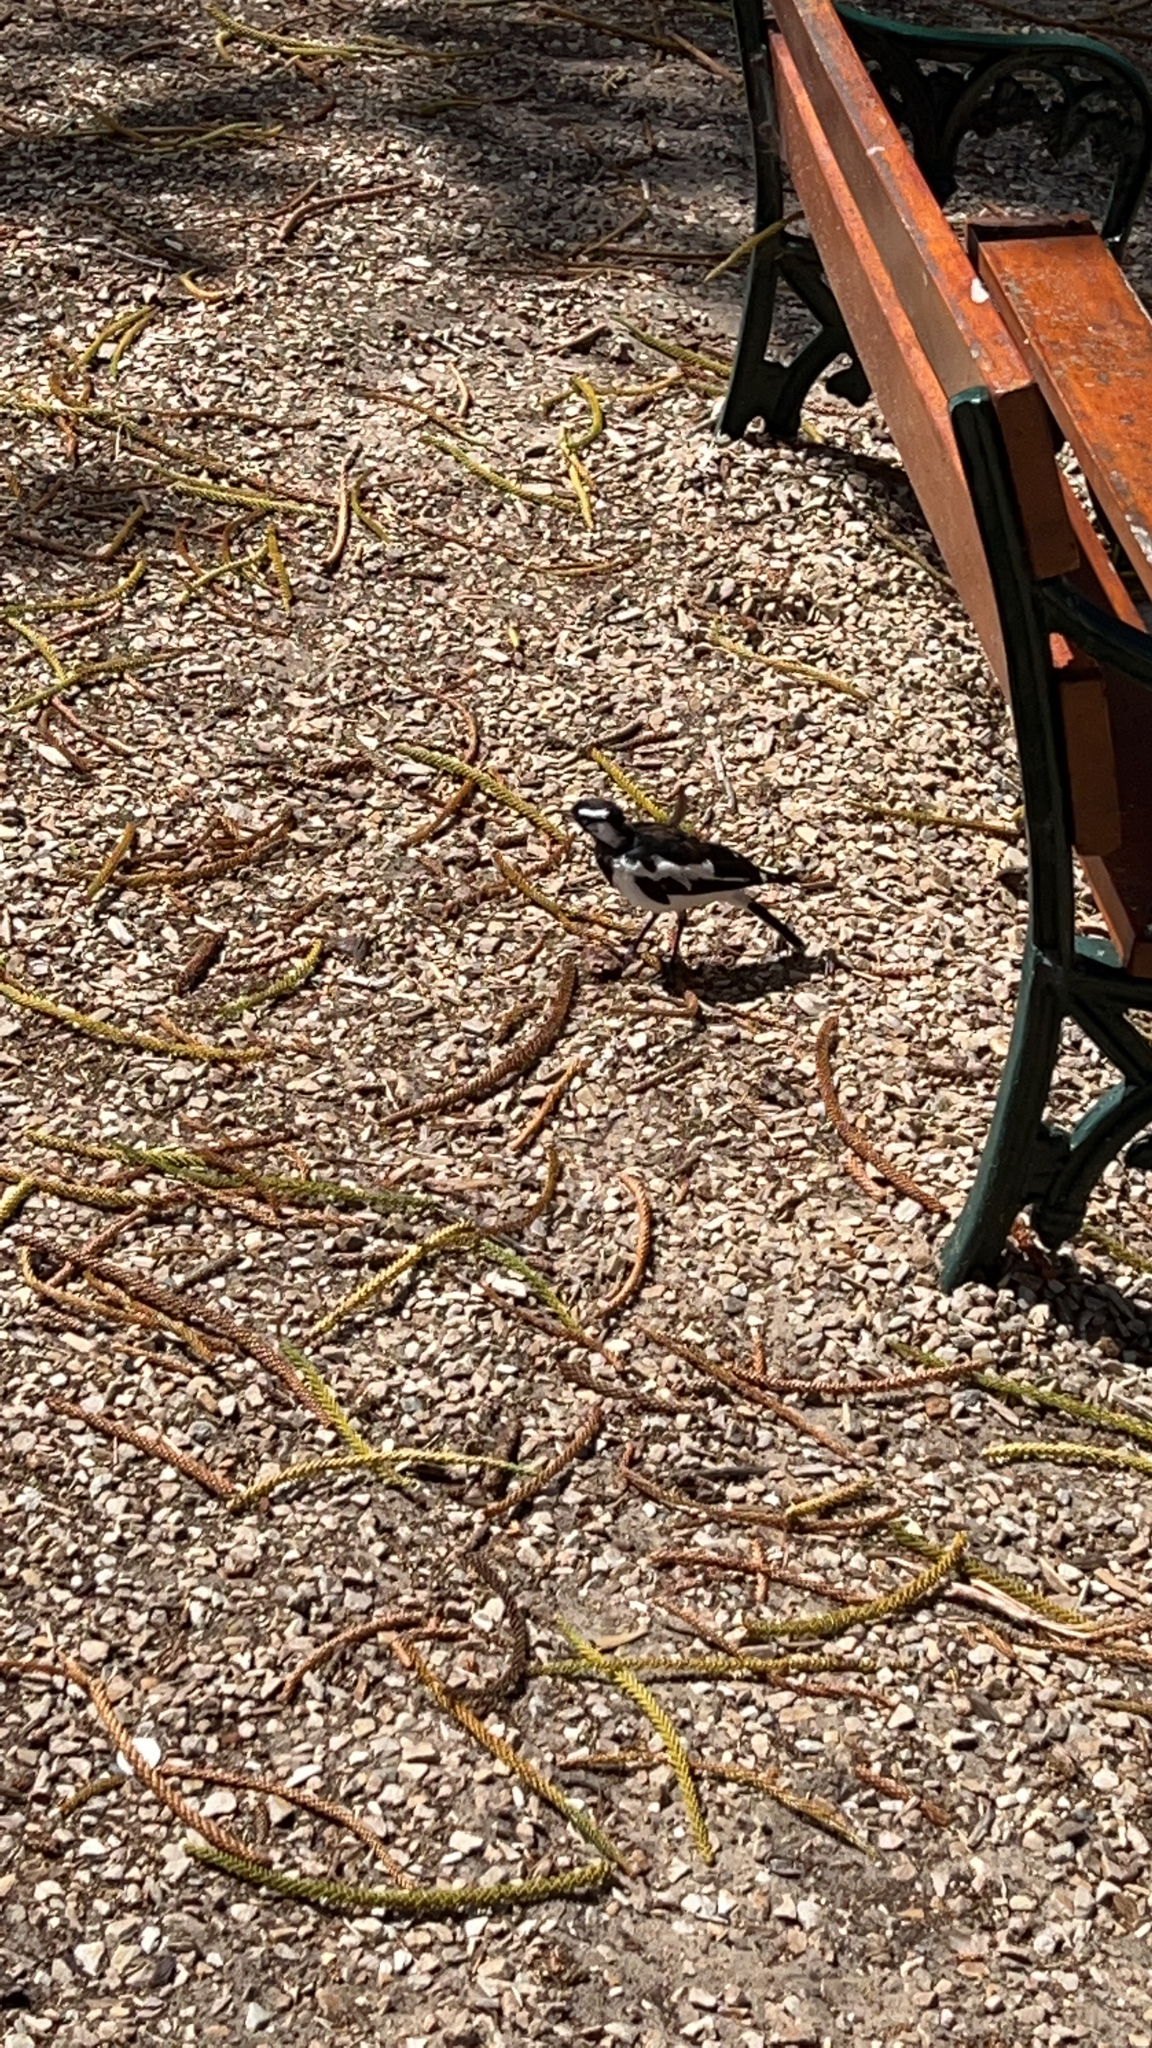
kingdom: Animalia
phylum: Chordata
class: Aves
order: Passeriformes
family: Monarchidae
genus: Grallina
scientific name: Grallina cyanoleuca
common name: Magpie-lark
